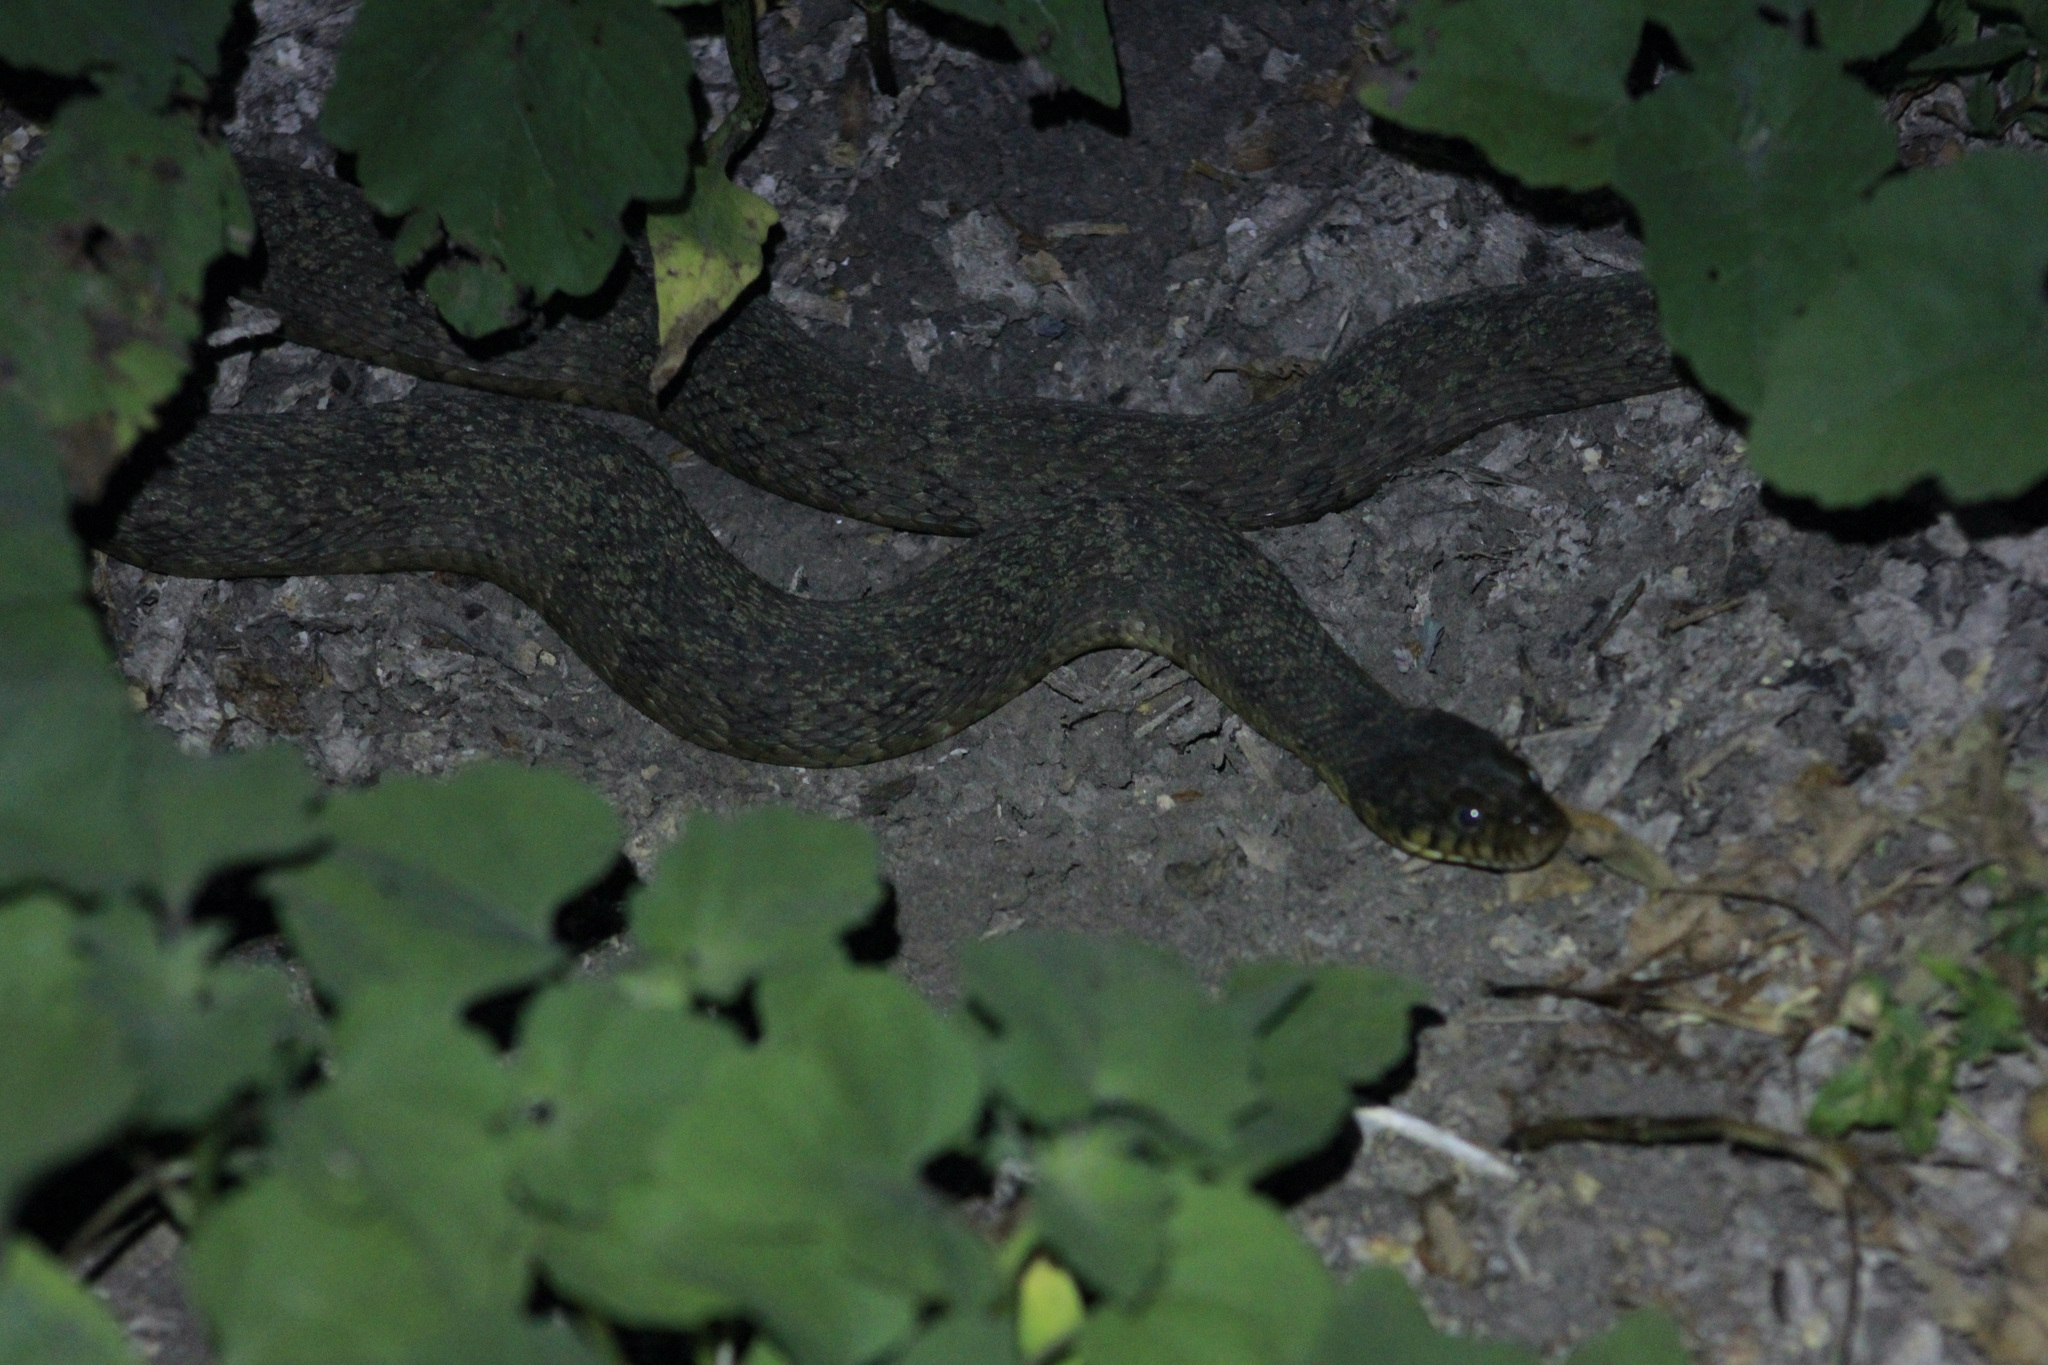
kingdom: Animalia
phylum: Chordata
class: Squamata
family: Colubridae
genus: Nerodia
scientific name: Nerodia erythrogaster
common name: Plainbelly water snake
